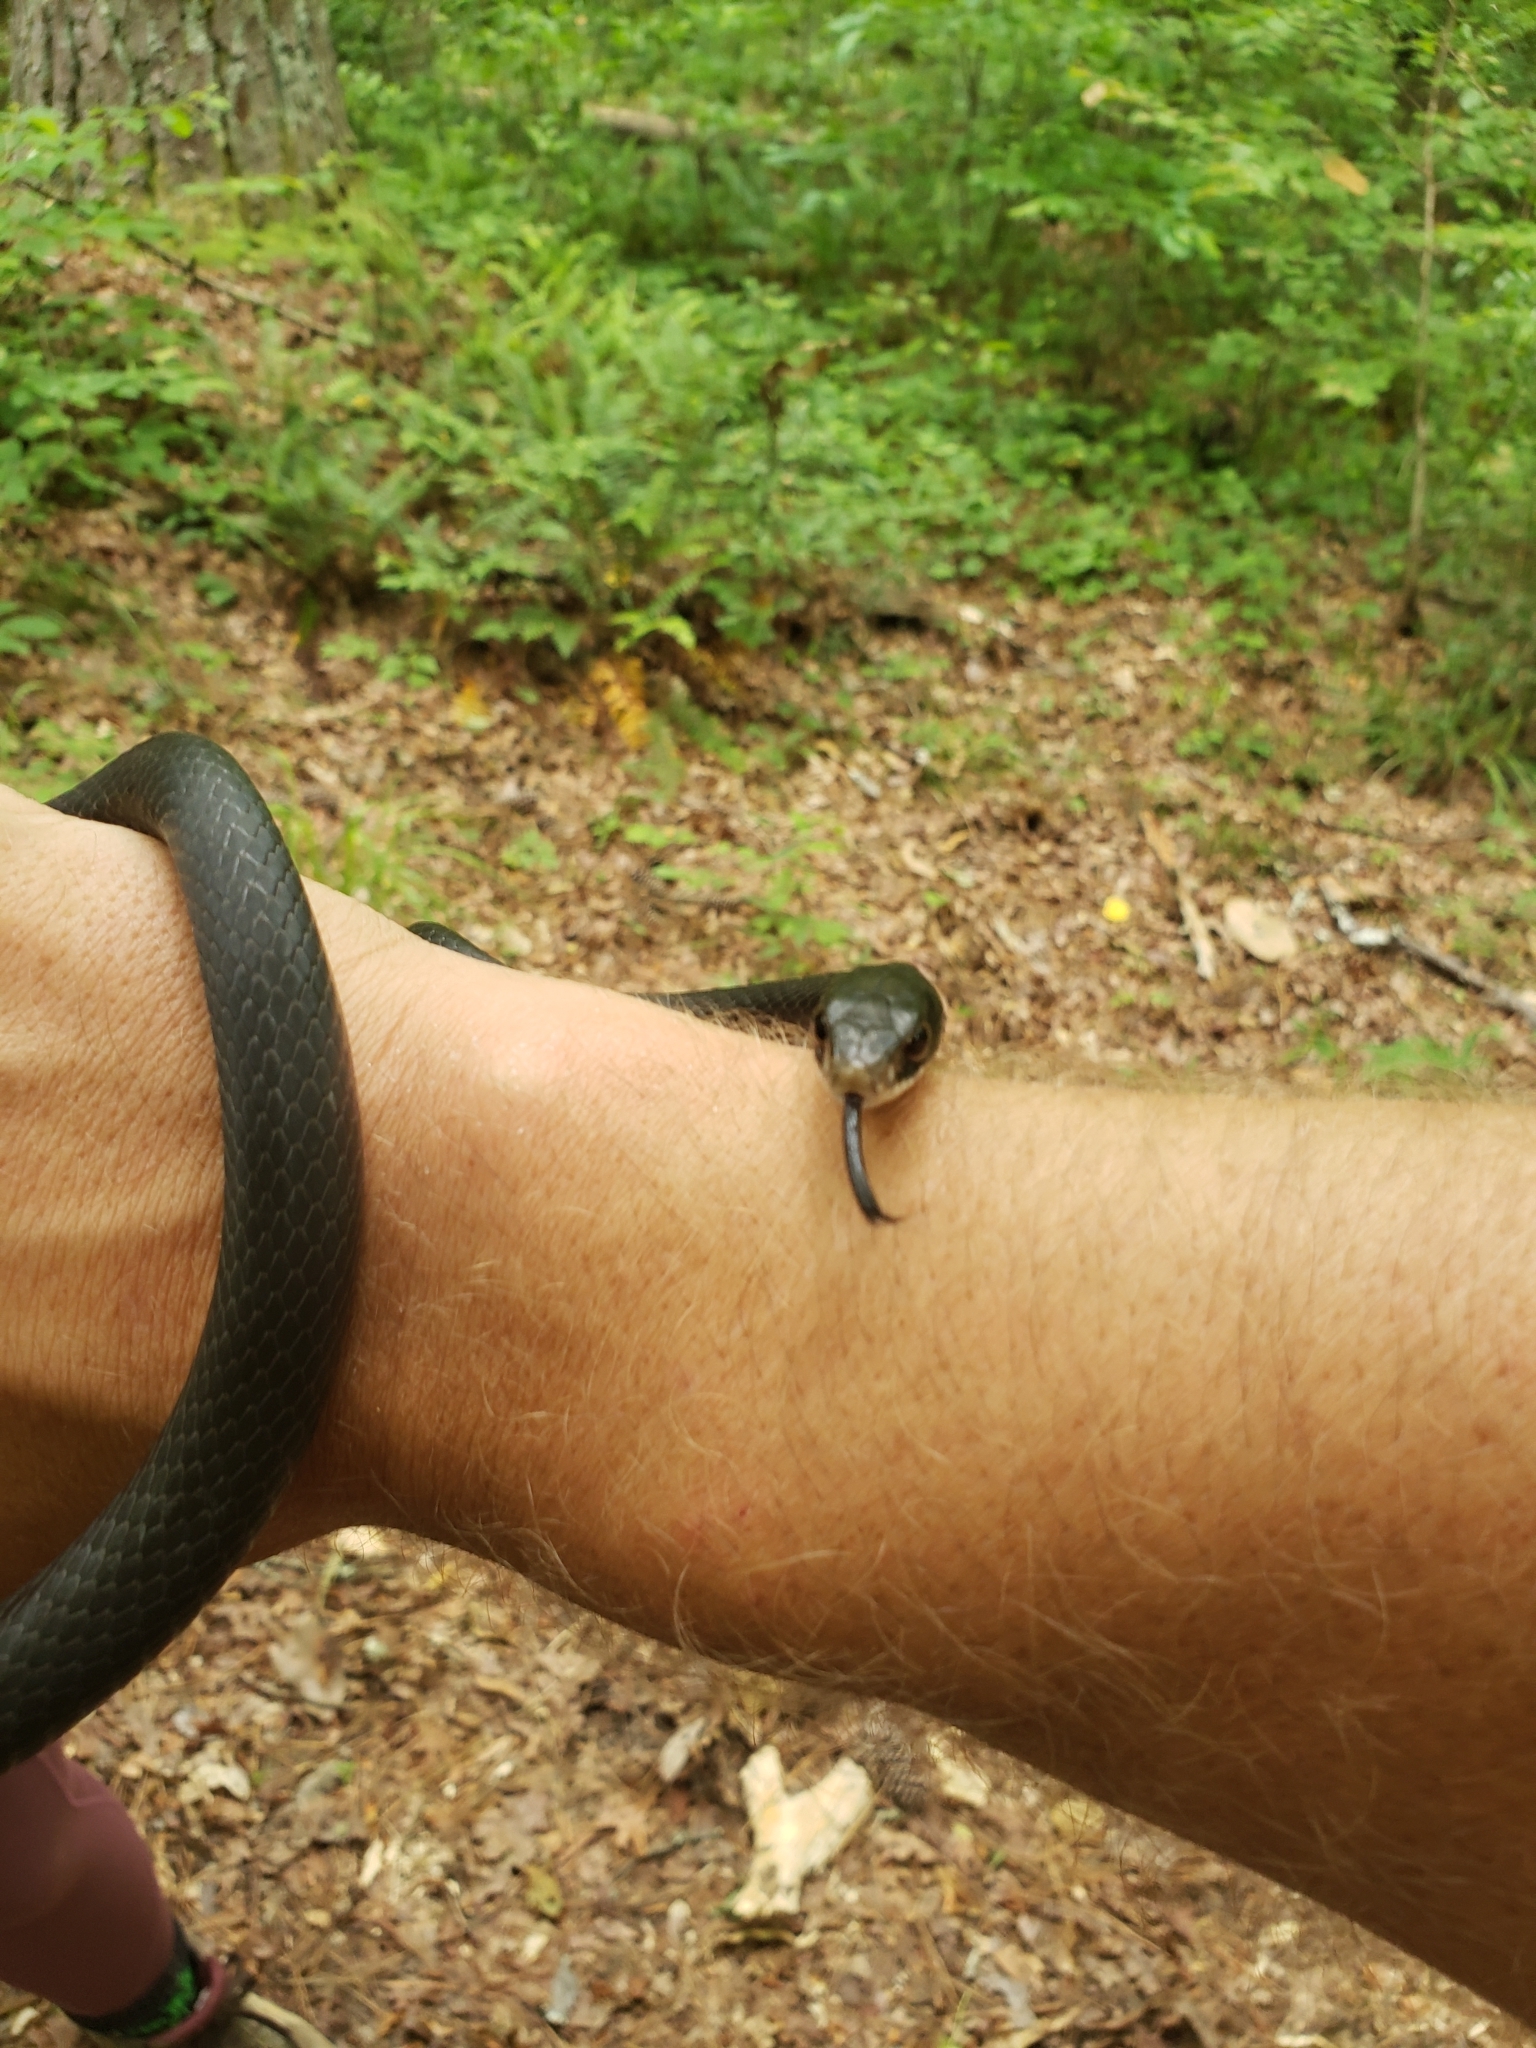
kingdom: Animalia
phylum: Chordata
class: Squamata
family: Colubridae
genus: Coluber
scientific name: Coluber constrictor
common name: Eastern racer
